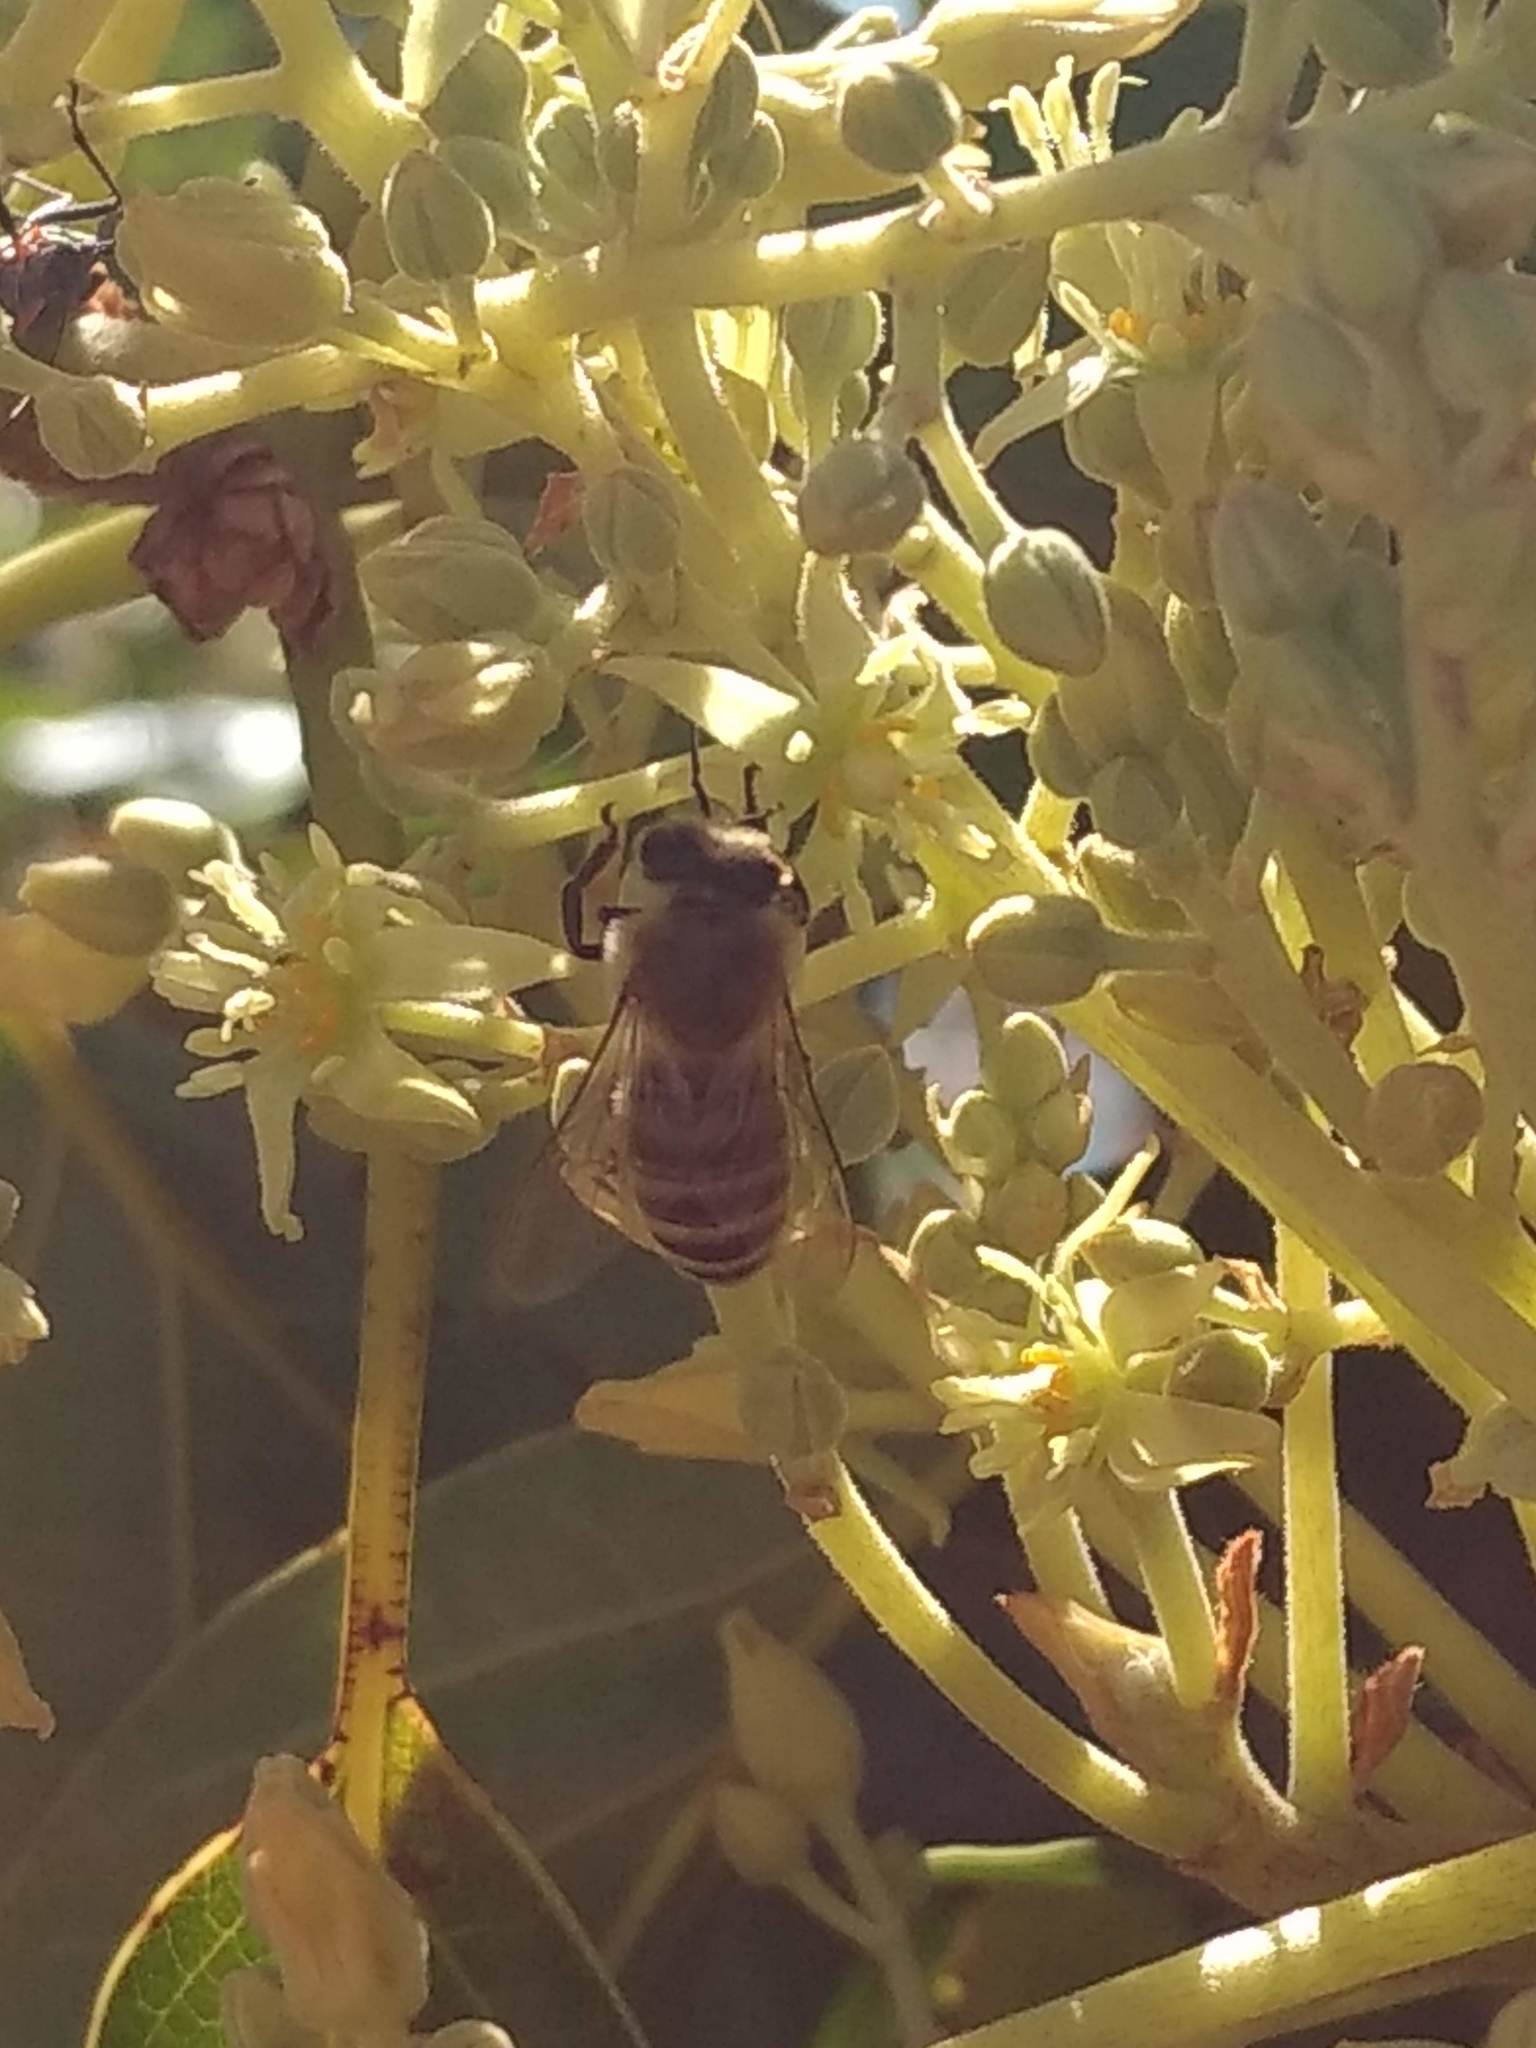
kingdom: Animalia
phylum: Arthropoda
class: Insecta
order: Hymenoptera
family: Apidae
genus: Apis
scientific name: Apis mellifera
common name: Honey bee
